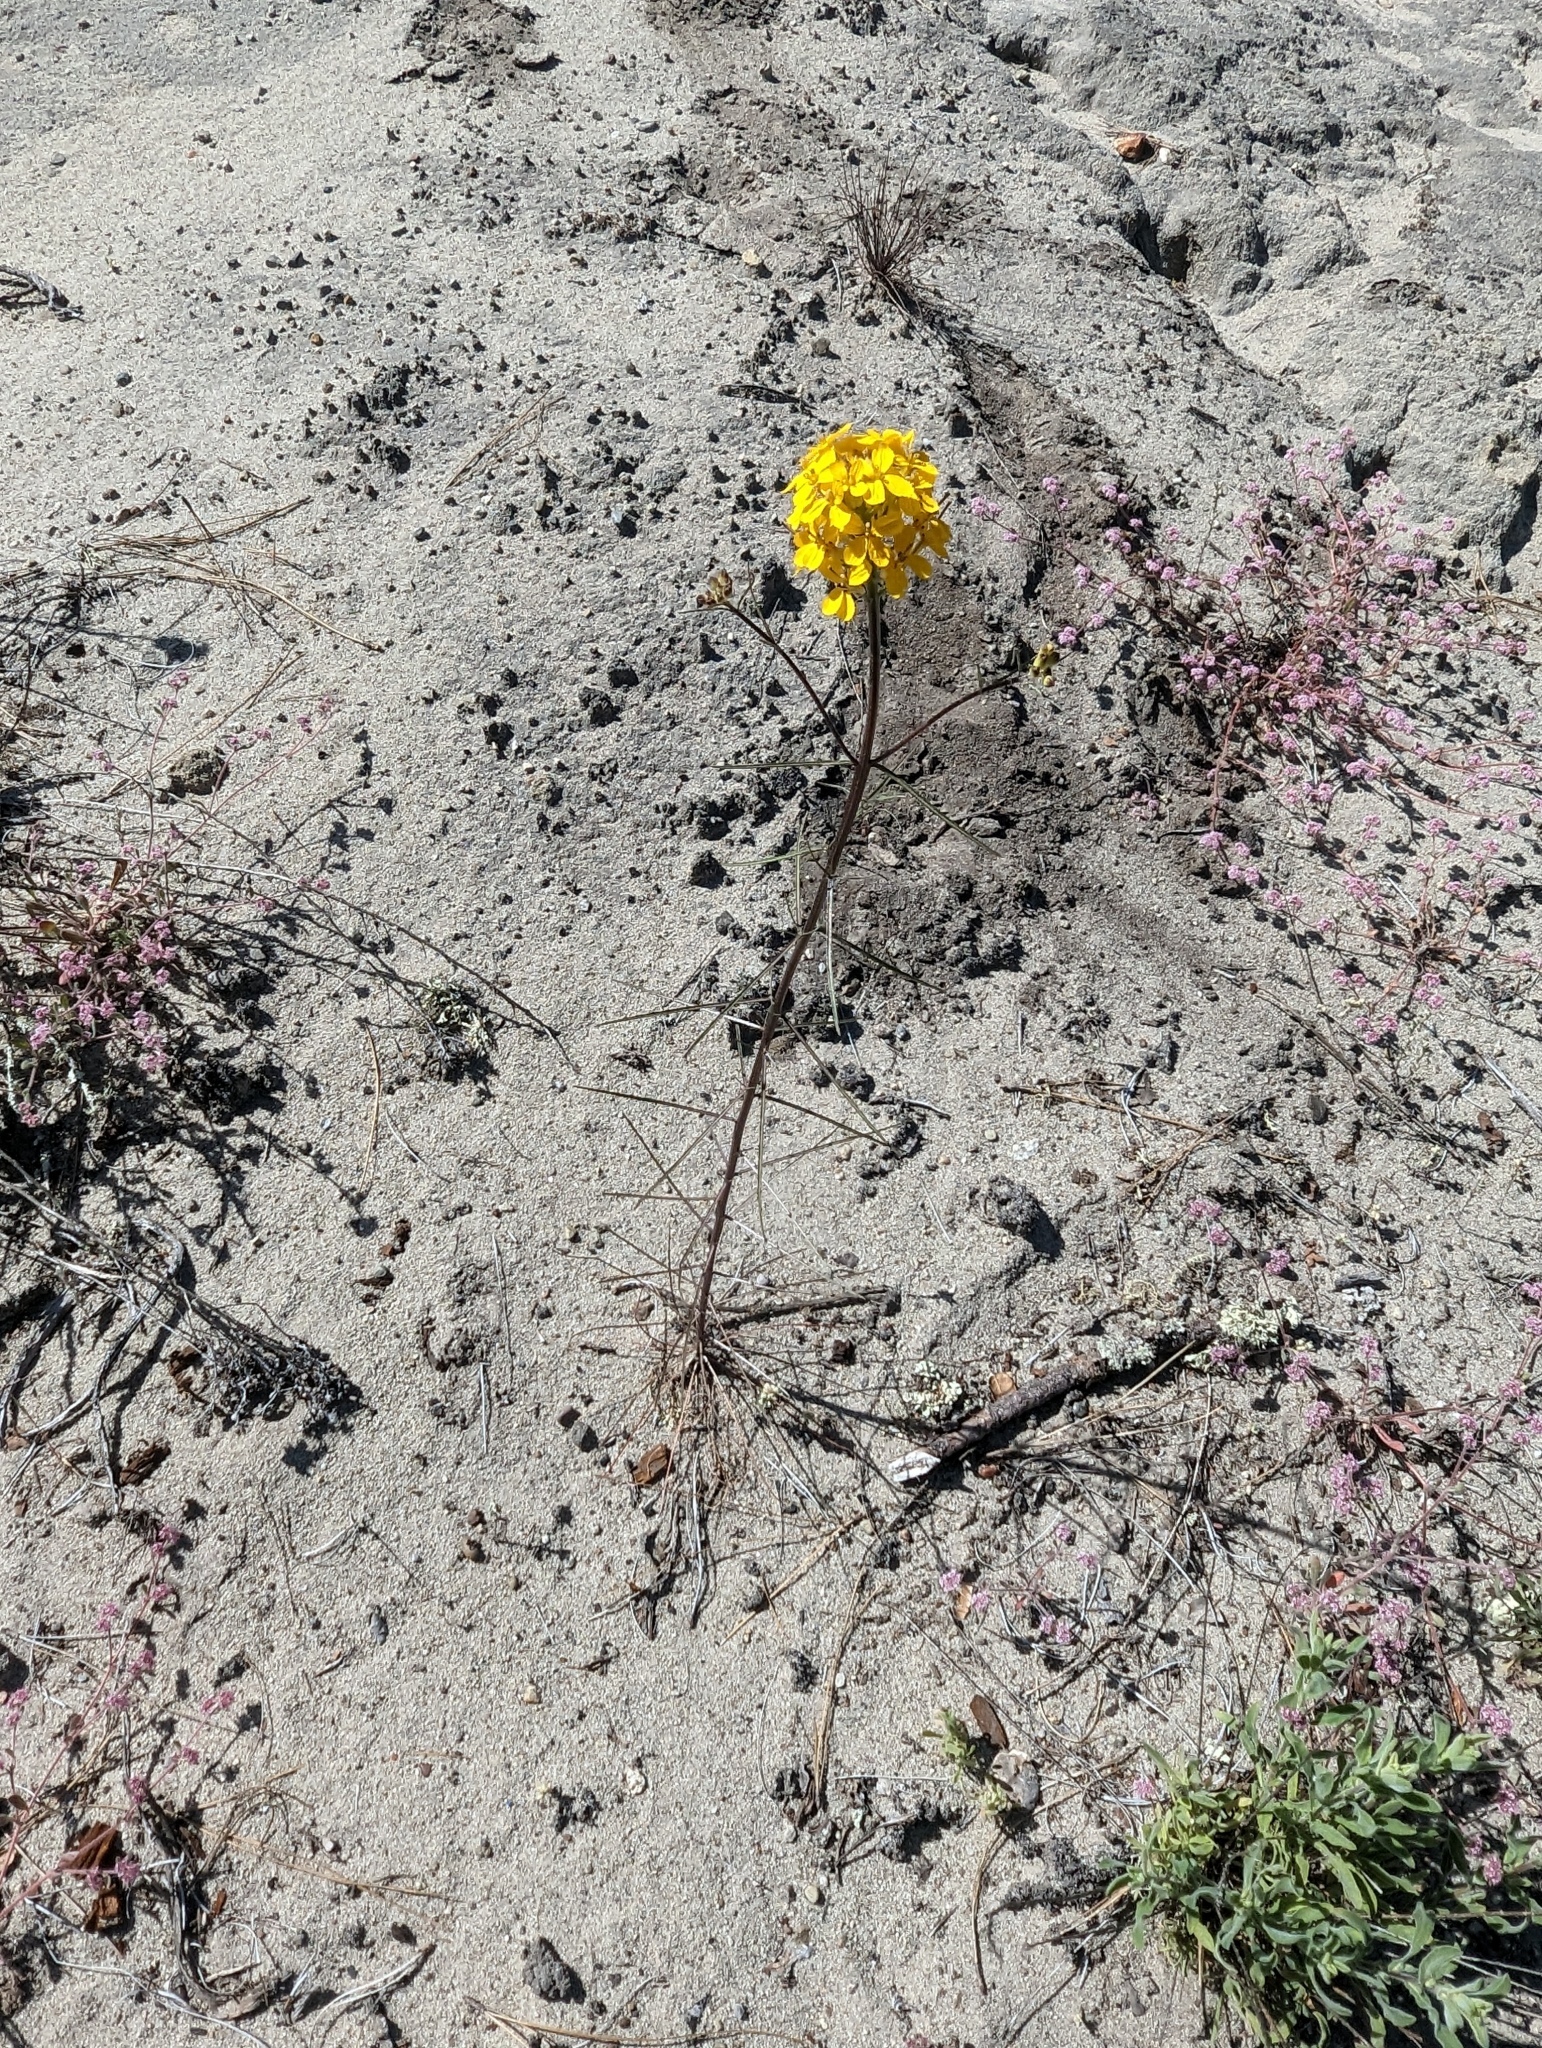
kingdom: Plantae
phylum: Tracheophyta
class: Magnoliopsida
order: Brassicales
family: Brassicaceae
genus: Erysimum
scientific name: Erysimum teretifolium
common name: Ben lomond wallflower
